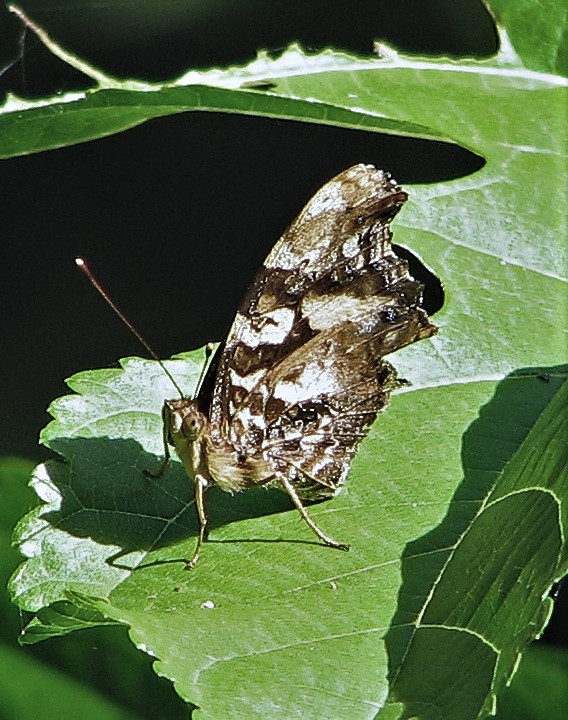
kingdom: Animalia
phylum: Arthropoda
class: Insecta
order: Lepidoptera
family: Nymphalidae
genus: Hypanartia
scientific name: Hypanartia bella
